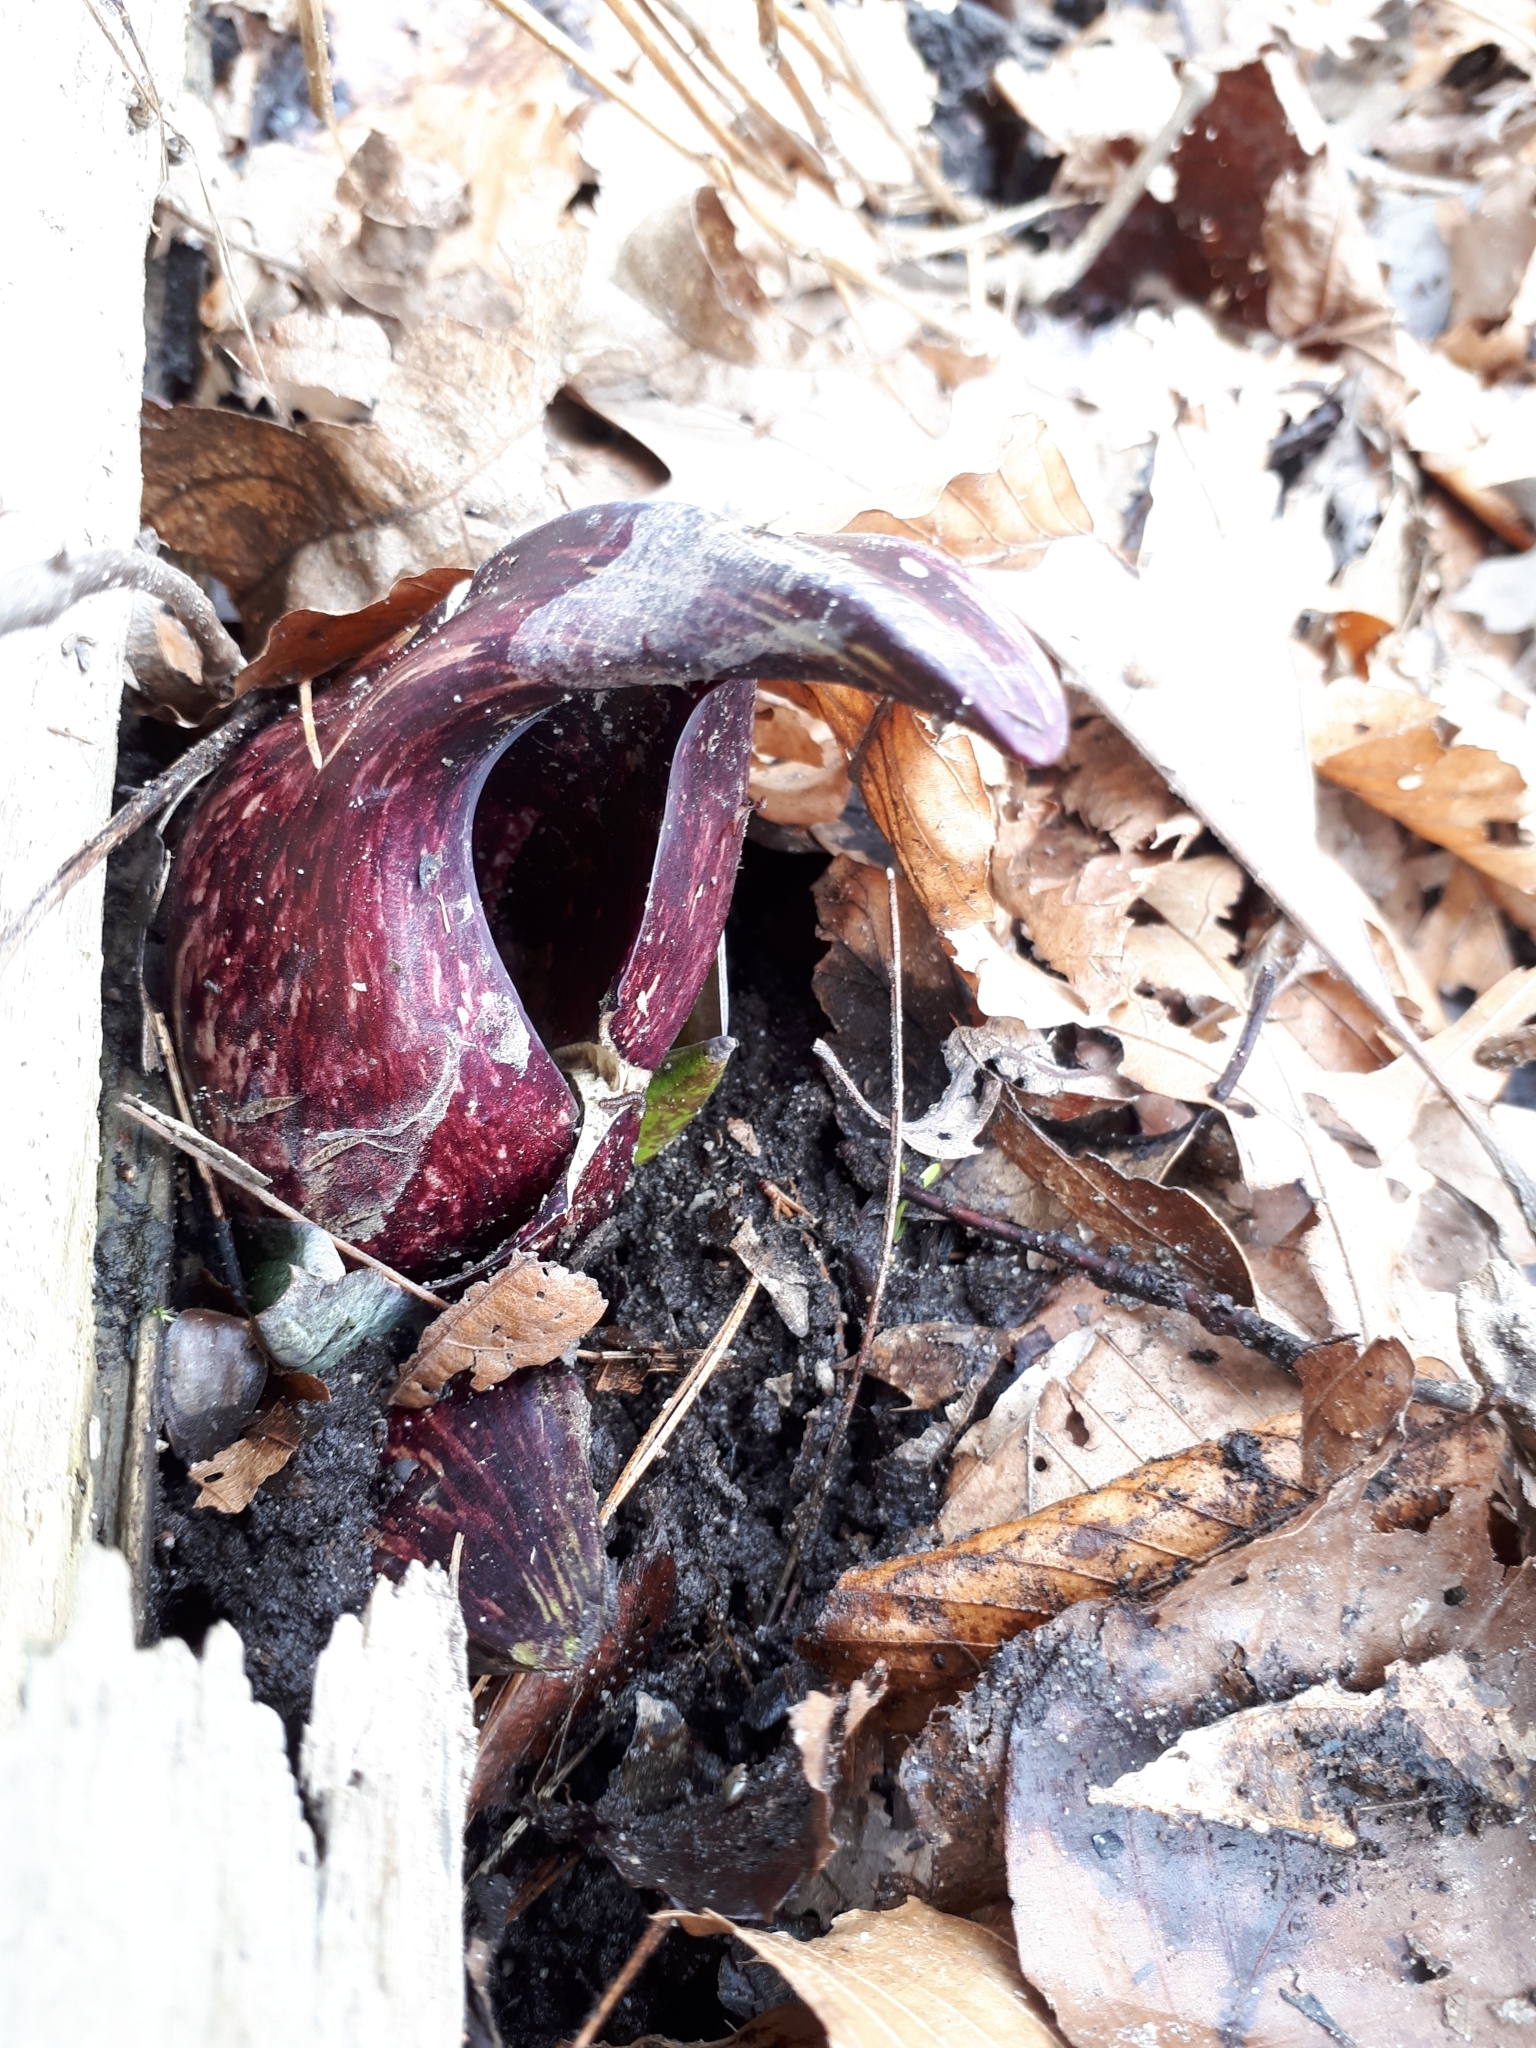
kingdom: Plantae
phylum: Tracheophyta
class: Liliopsida
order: Alismatales
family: Araceae
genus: Symplocarpus
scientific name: Symplocarpus foetidus
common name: Eastern skunk cabbage
